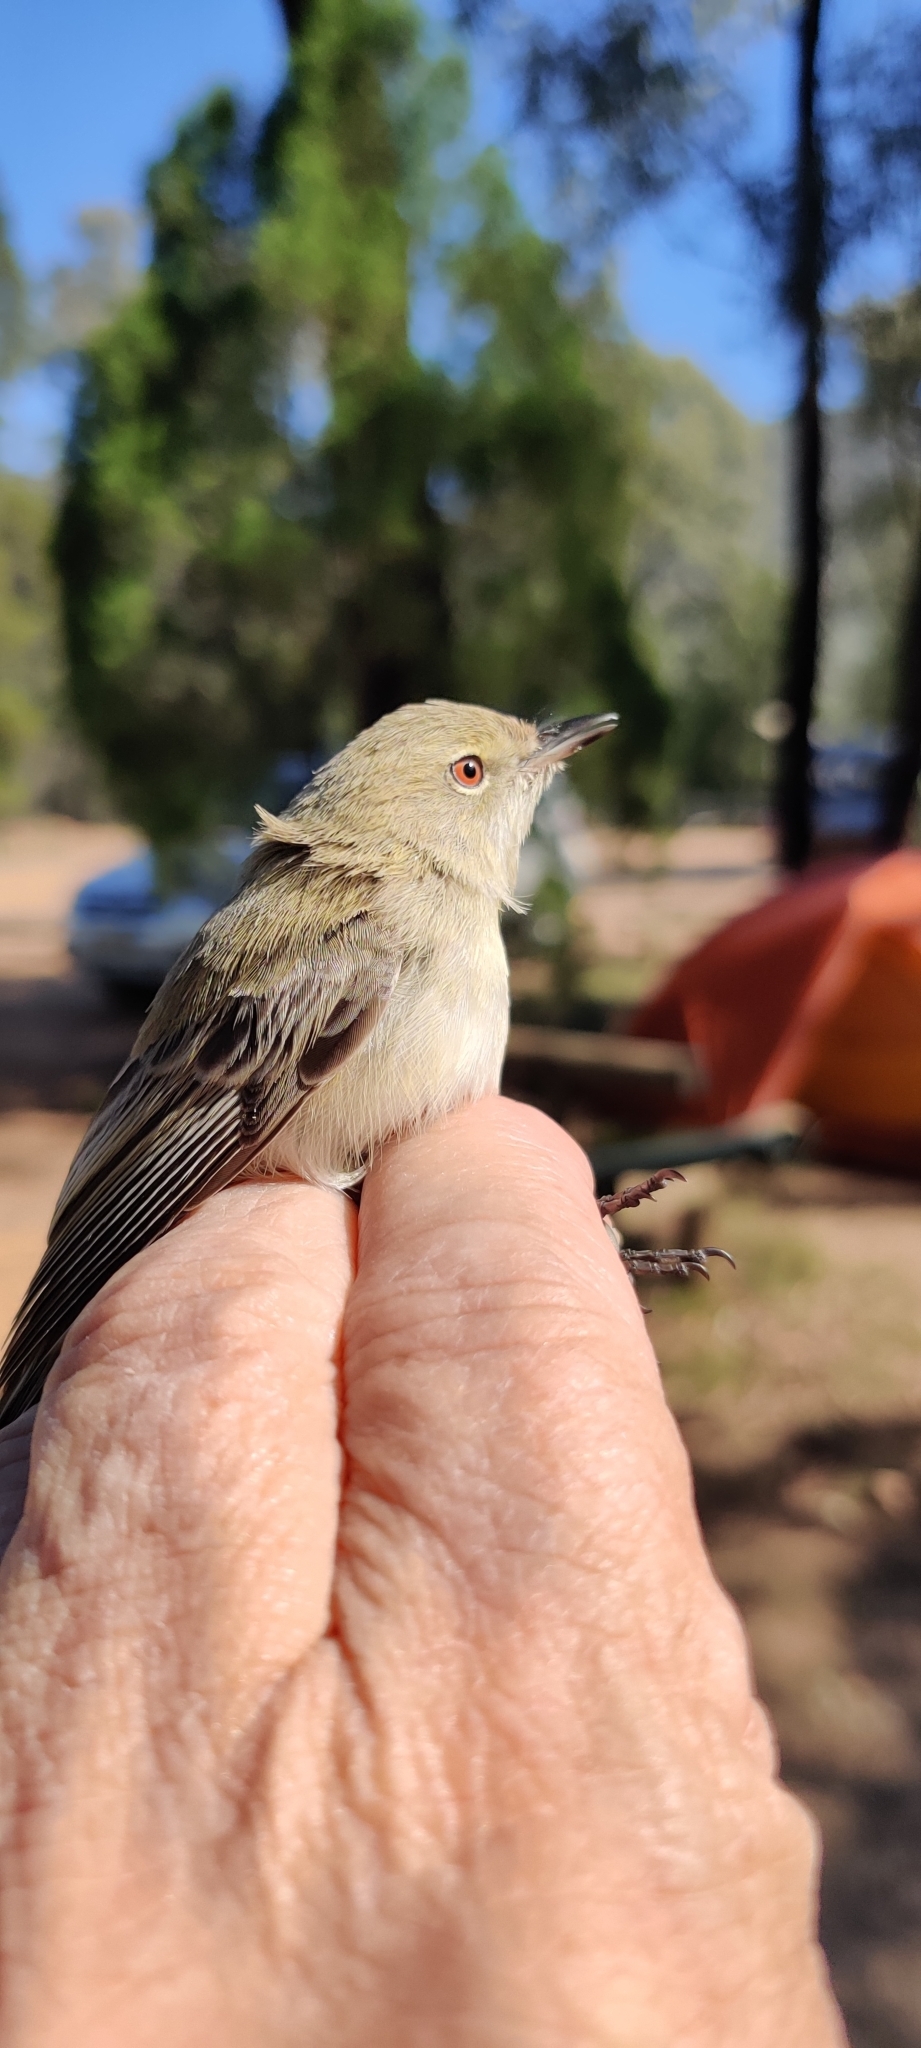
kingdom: Animalia
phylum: Chordata
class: Aves
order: Passeriformes
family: Acanthizidae
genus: Gerygone
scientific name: Gerygone fusca
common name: Western gerygone
